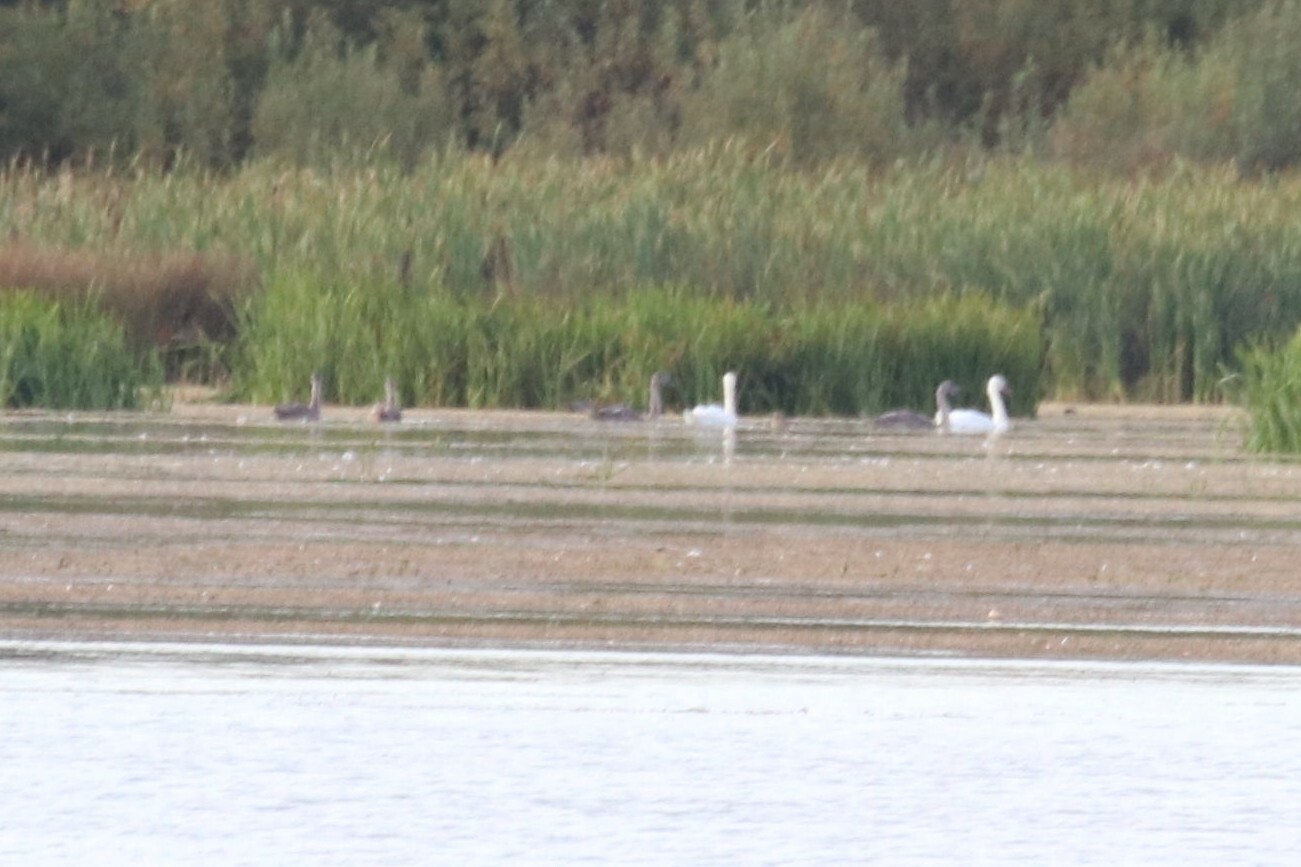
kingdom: Animalia
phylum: Chordata
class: Aves
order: Anseriformes
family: Anatidae
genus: Cygnus
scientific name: Cygnus olor
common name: Mute swan
